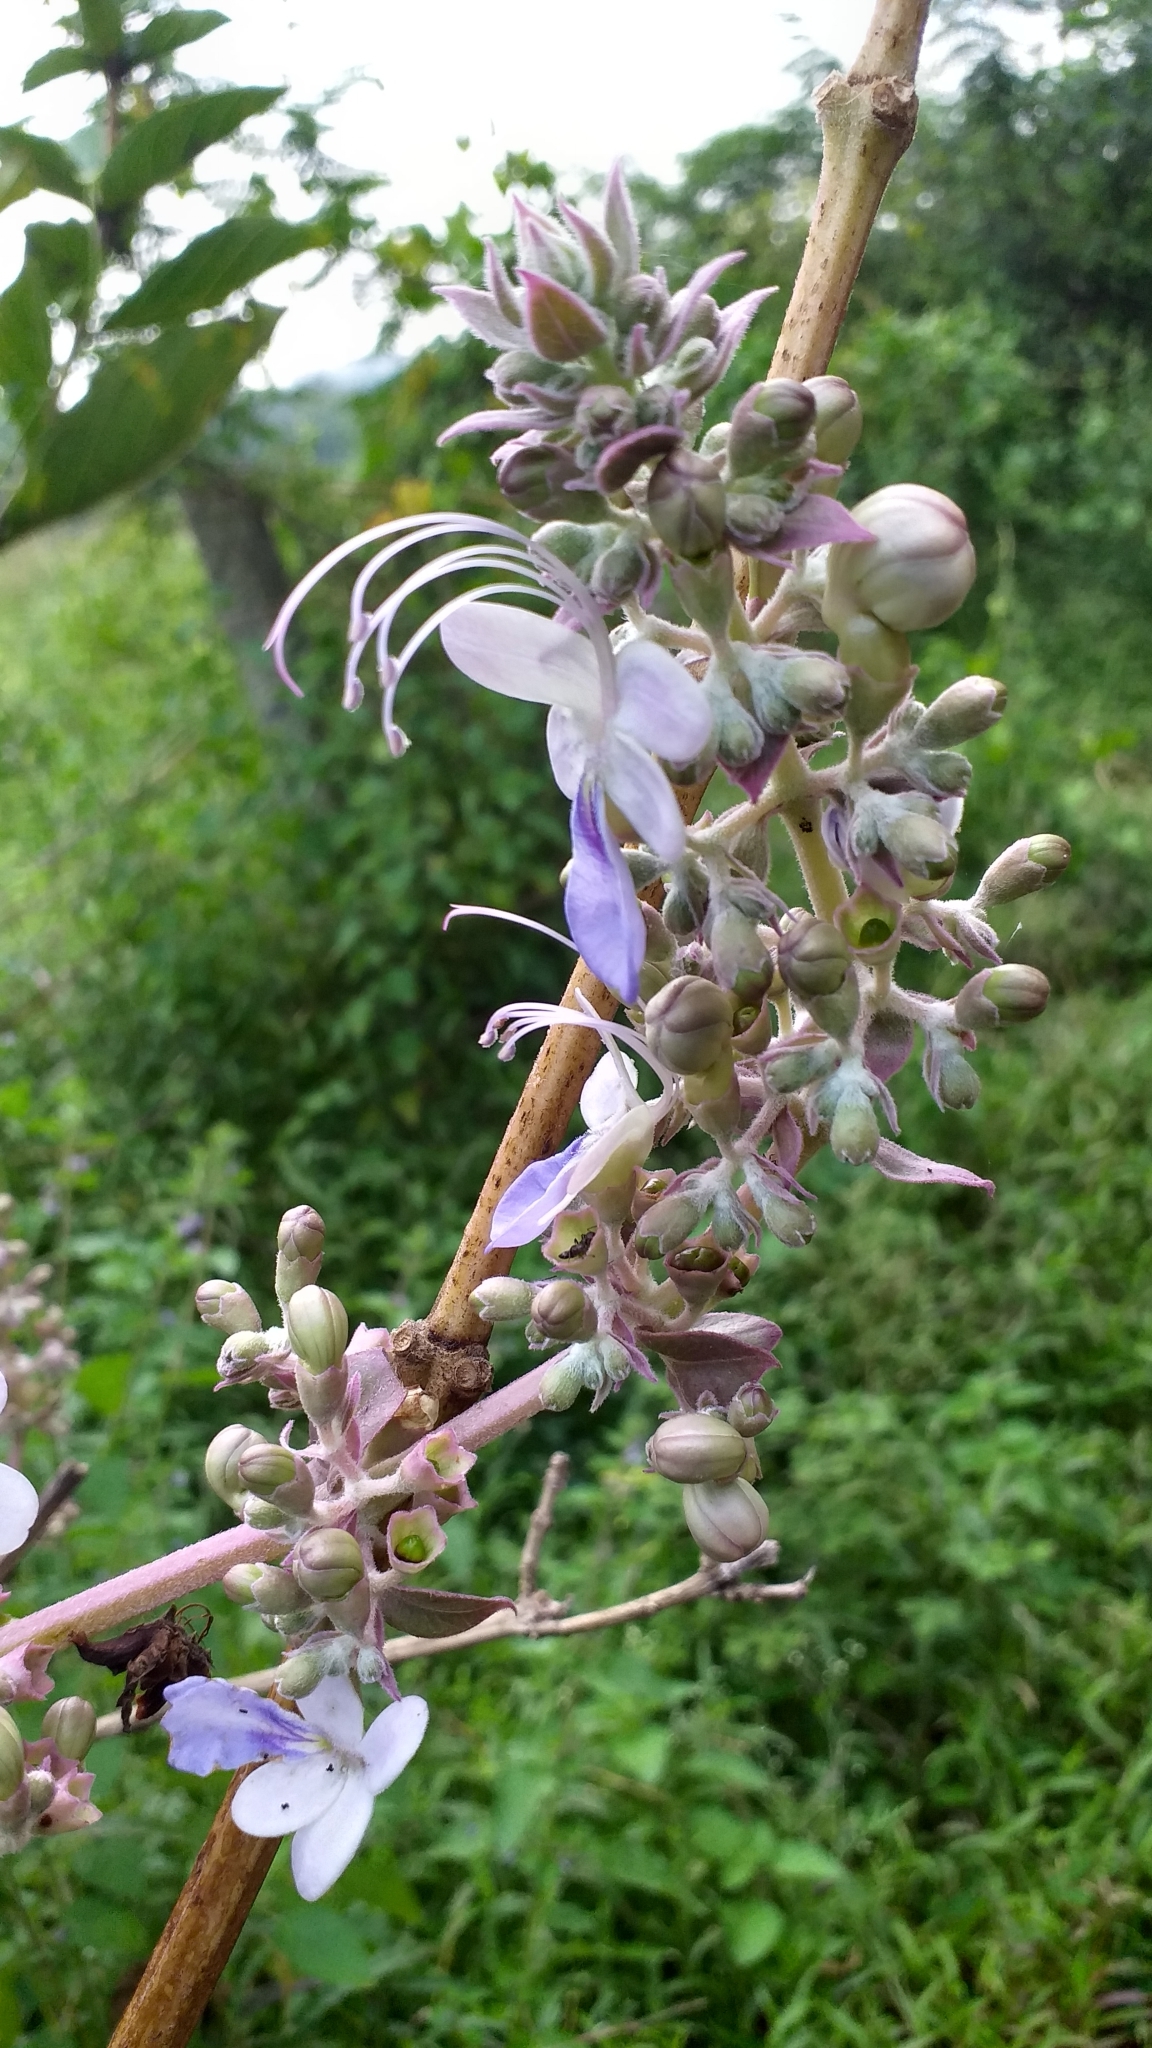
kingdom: Plantae
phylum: Tracheophyta
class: Magnoliopsida
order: Lamiales
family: Lamiaceae
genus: Rotheca
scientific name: Rotheca serrata
